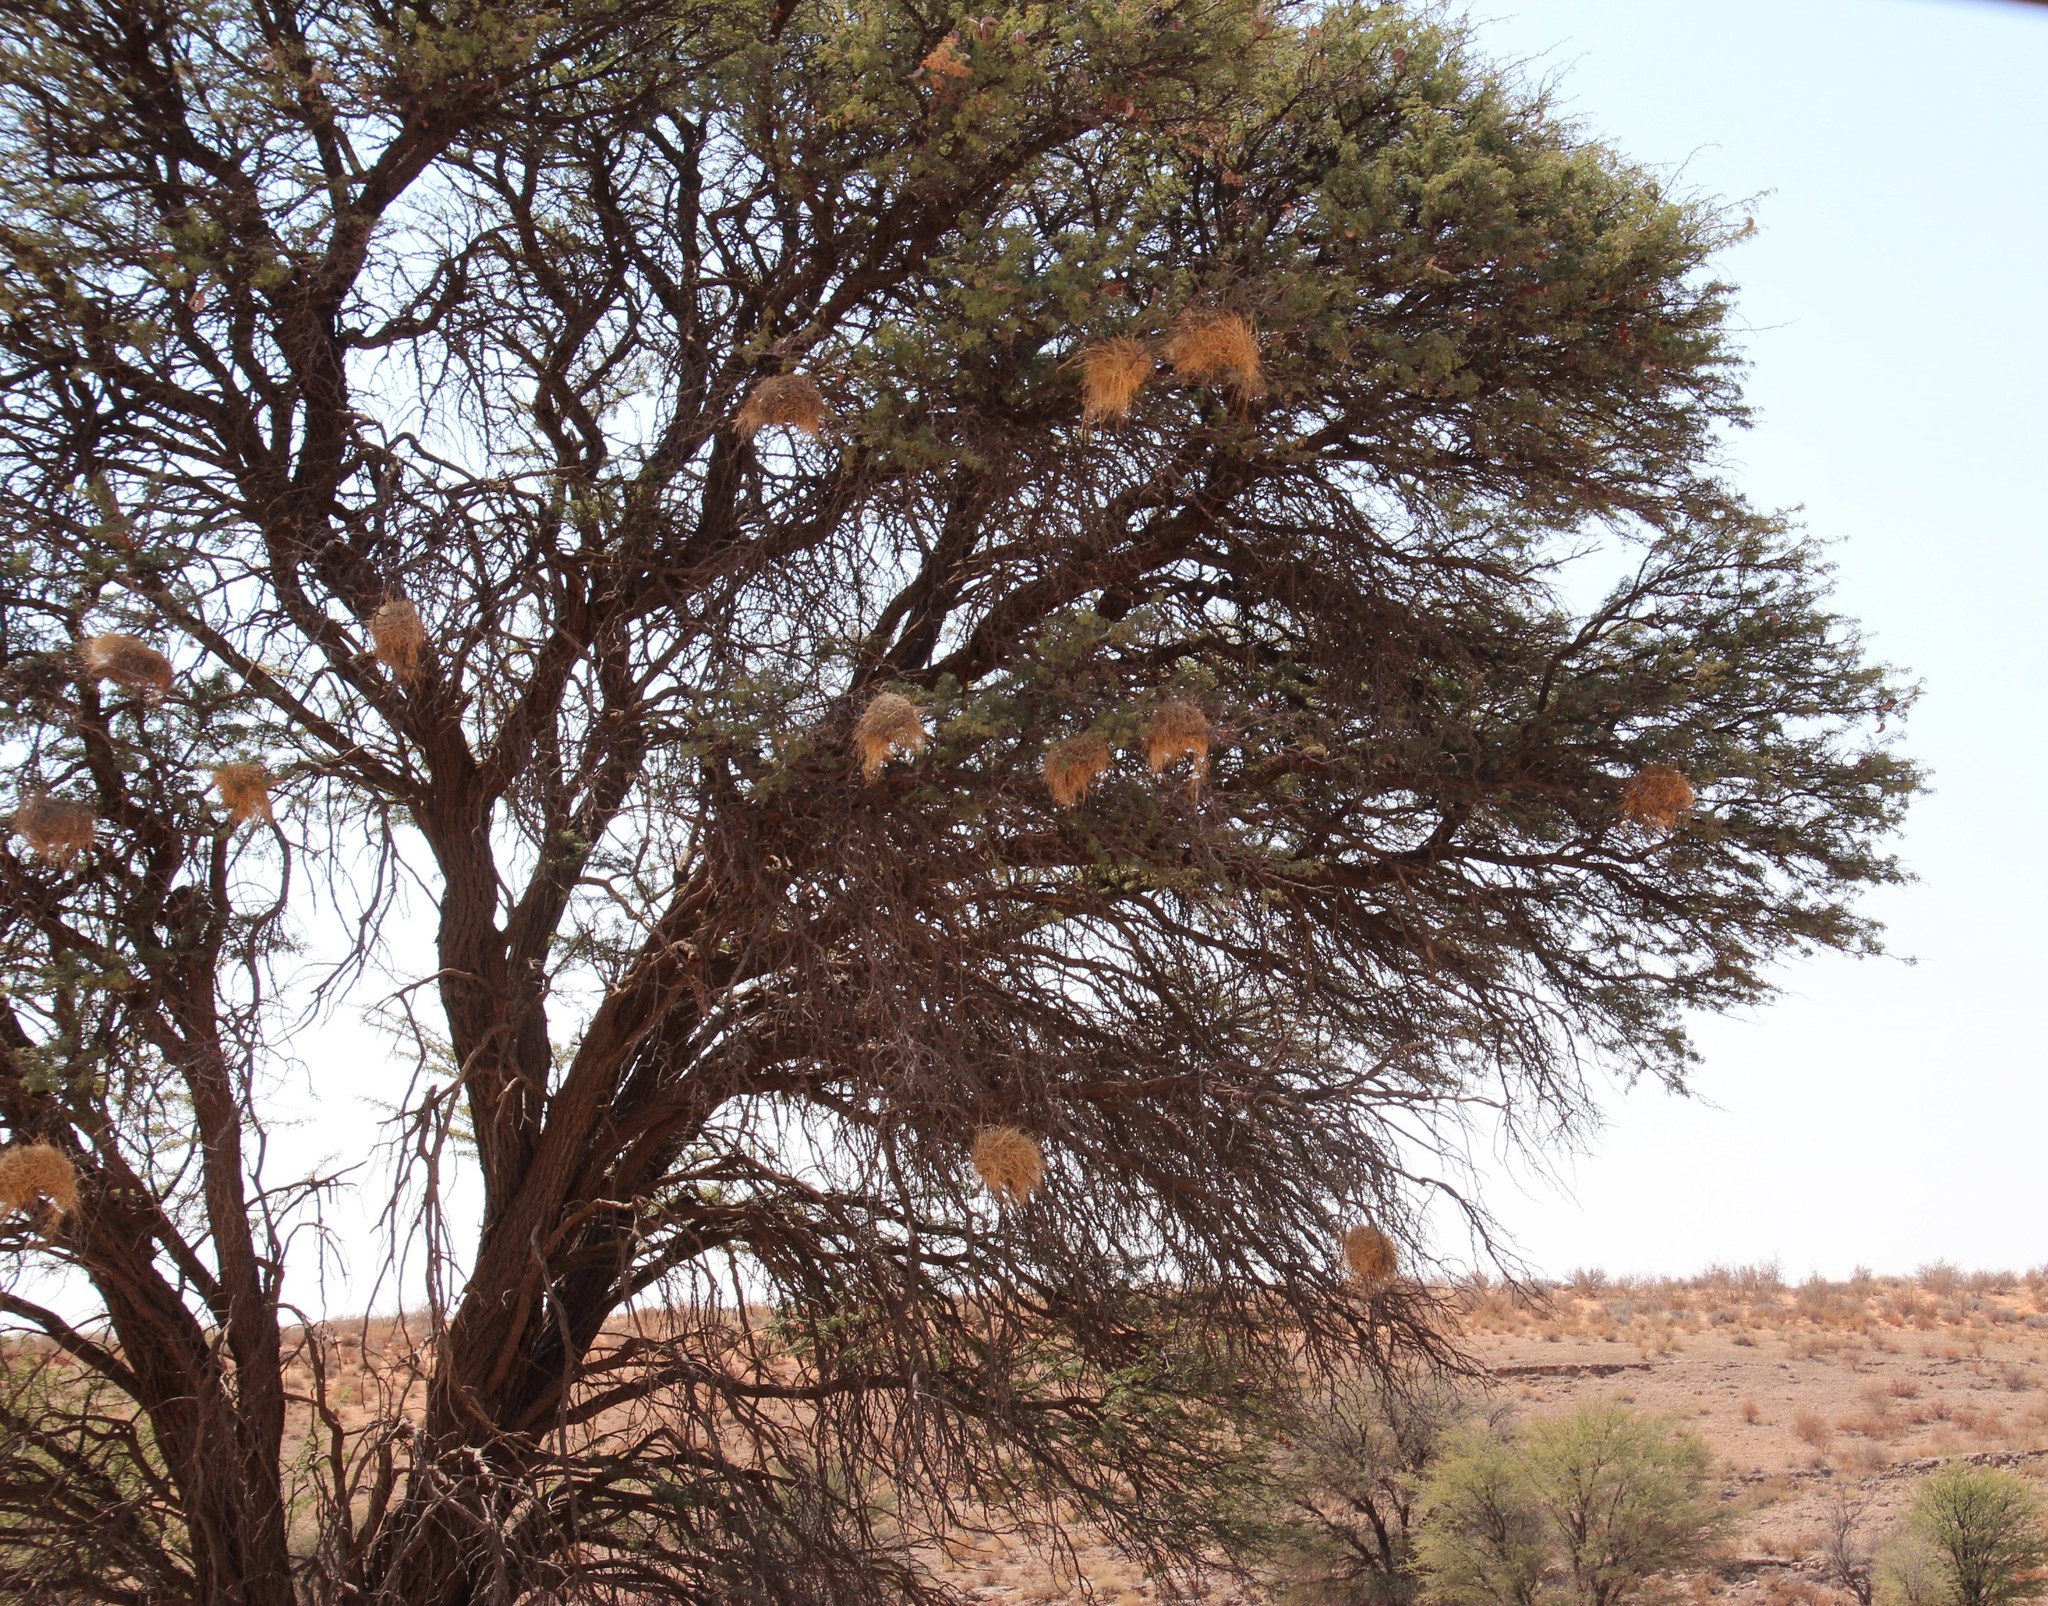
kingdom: Animalia
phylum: Chordata
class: Aves
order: Passeriformes
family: Passeridae
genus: Plocepasser
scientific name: Plocepasser mahali
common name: White-browed sparrow-weaver
